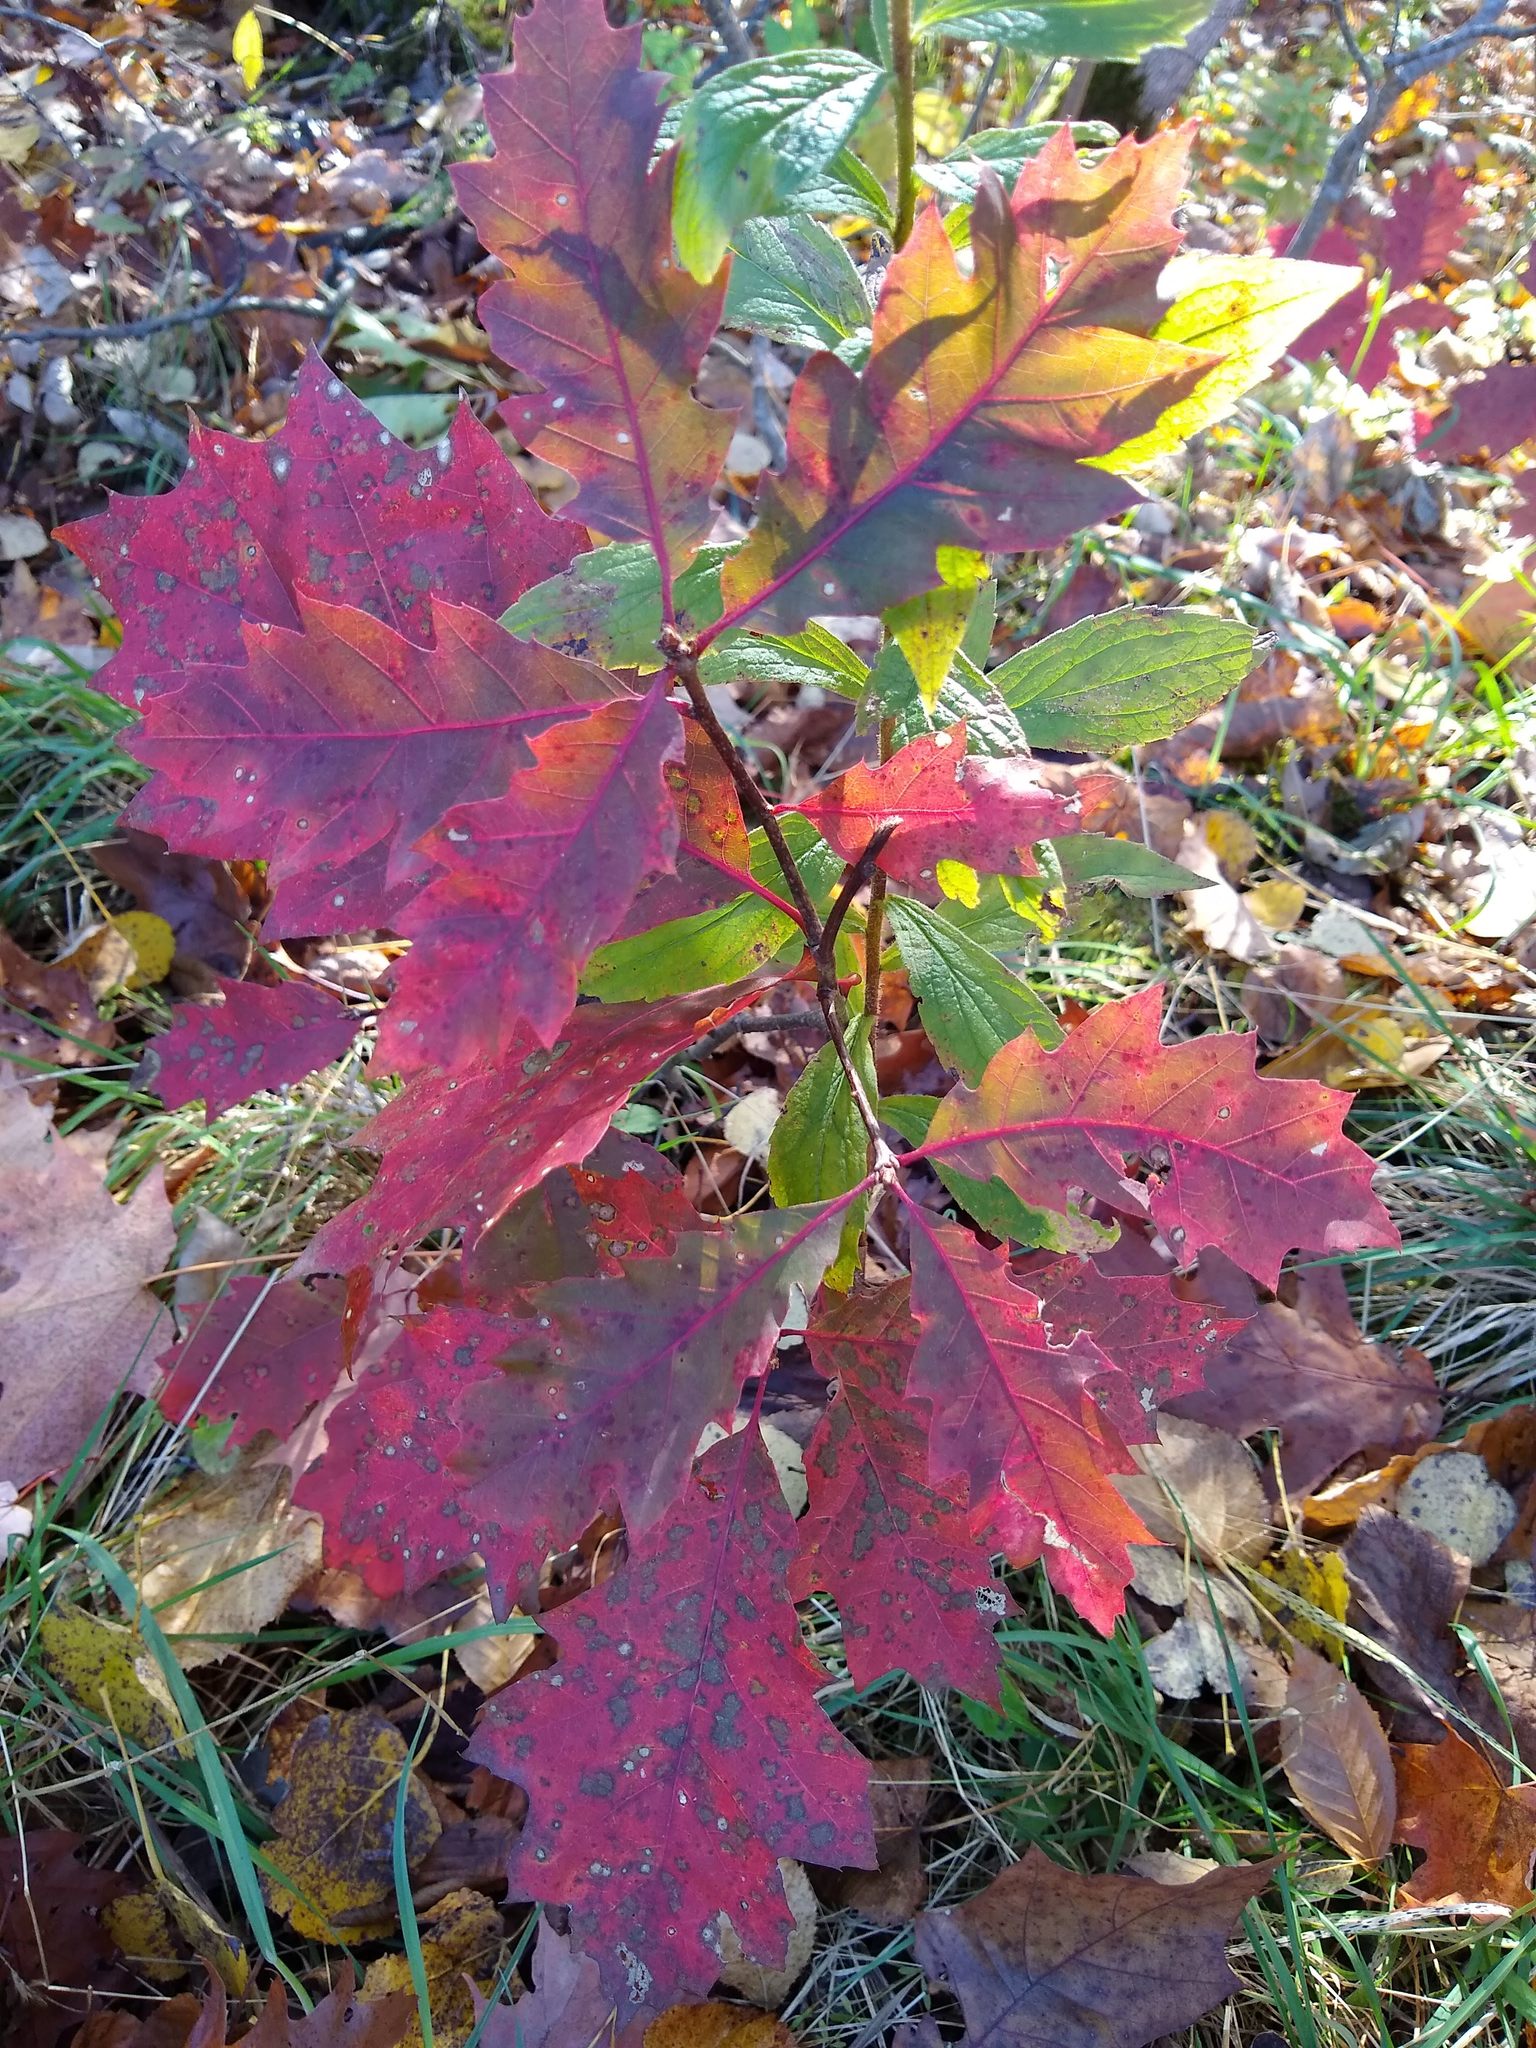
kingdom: Plantae
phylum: Tracheophyta
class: Magnoliopsida
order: Fagales
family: Fagaceae
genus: Quercus
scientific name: Quercus rubra
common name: Red oak
